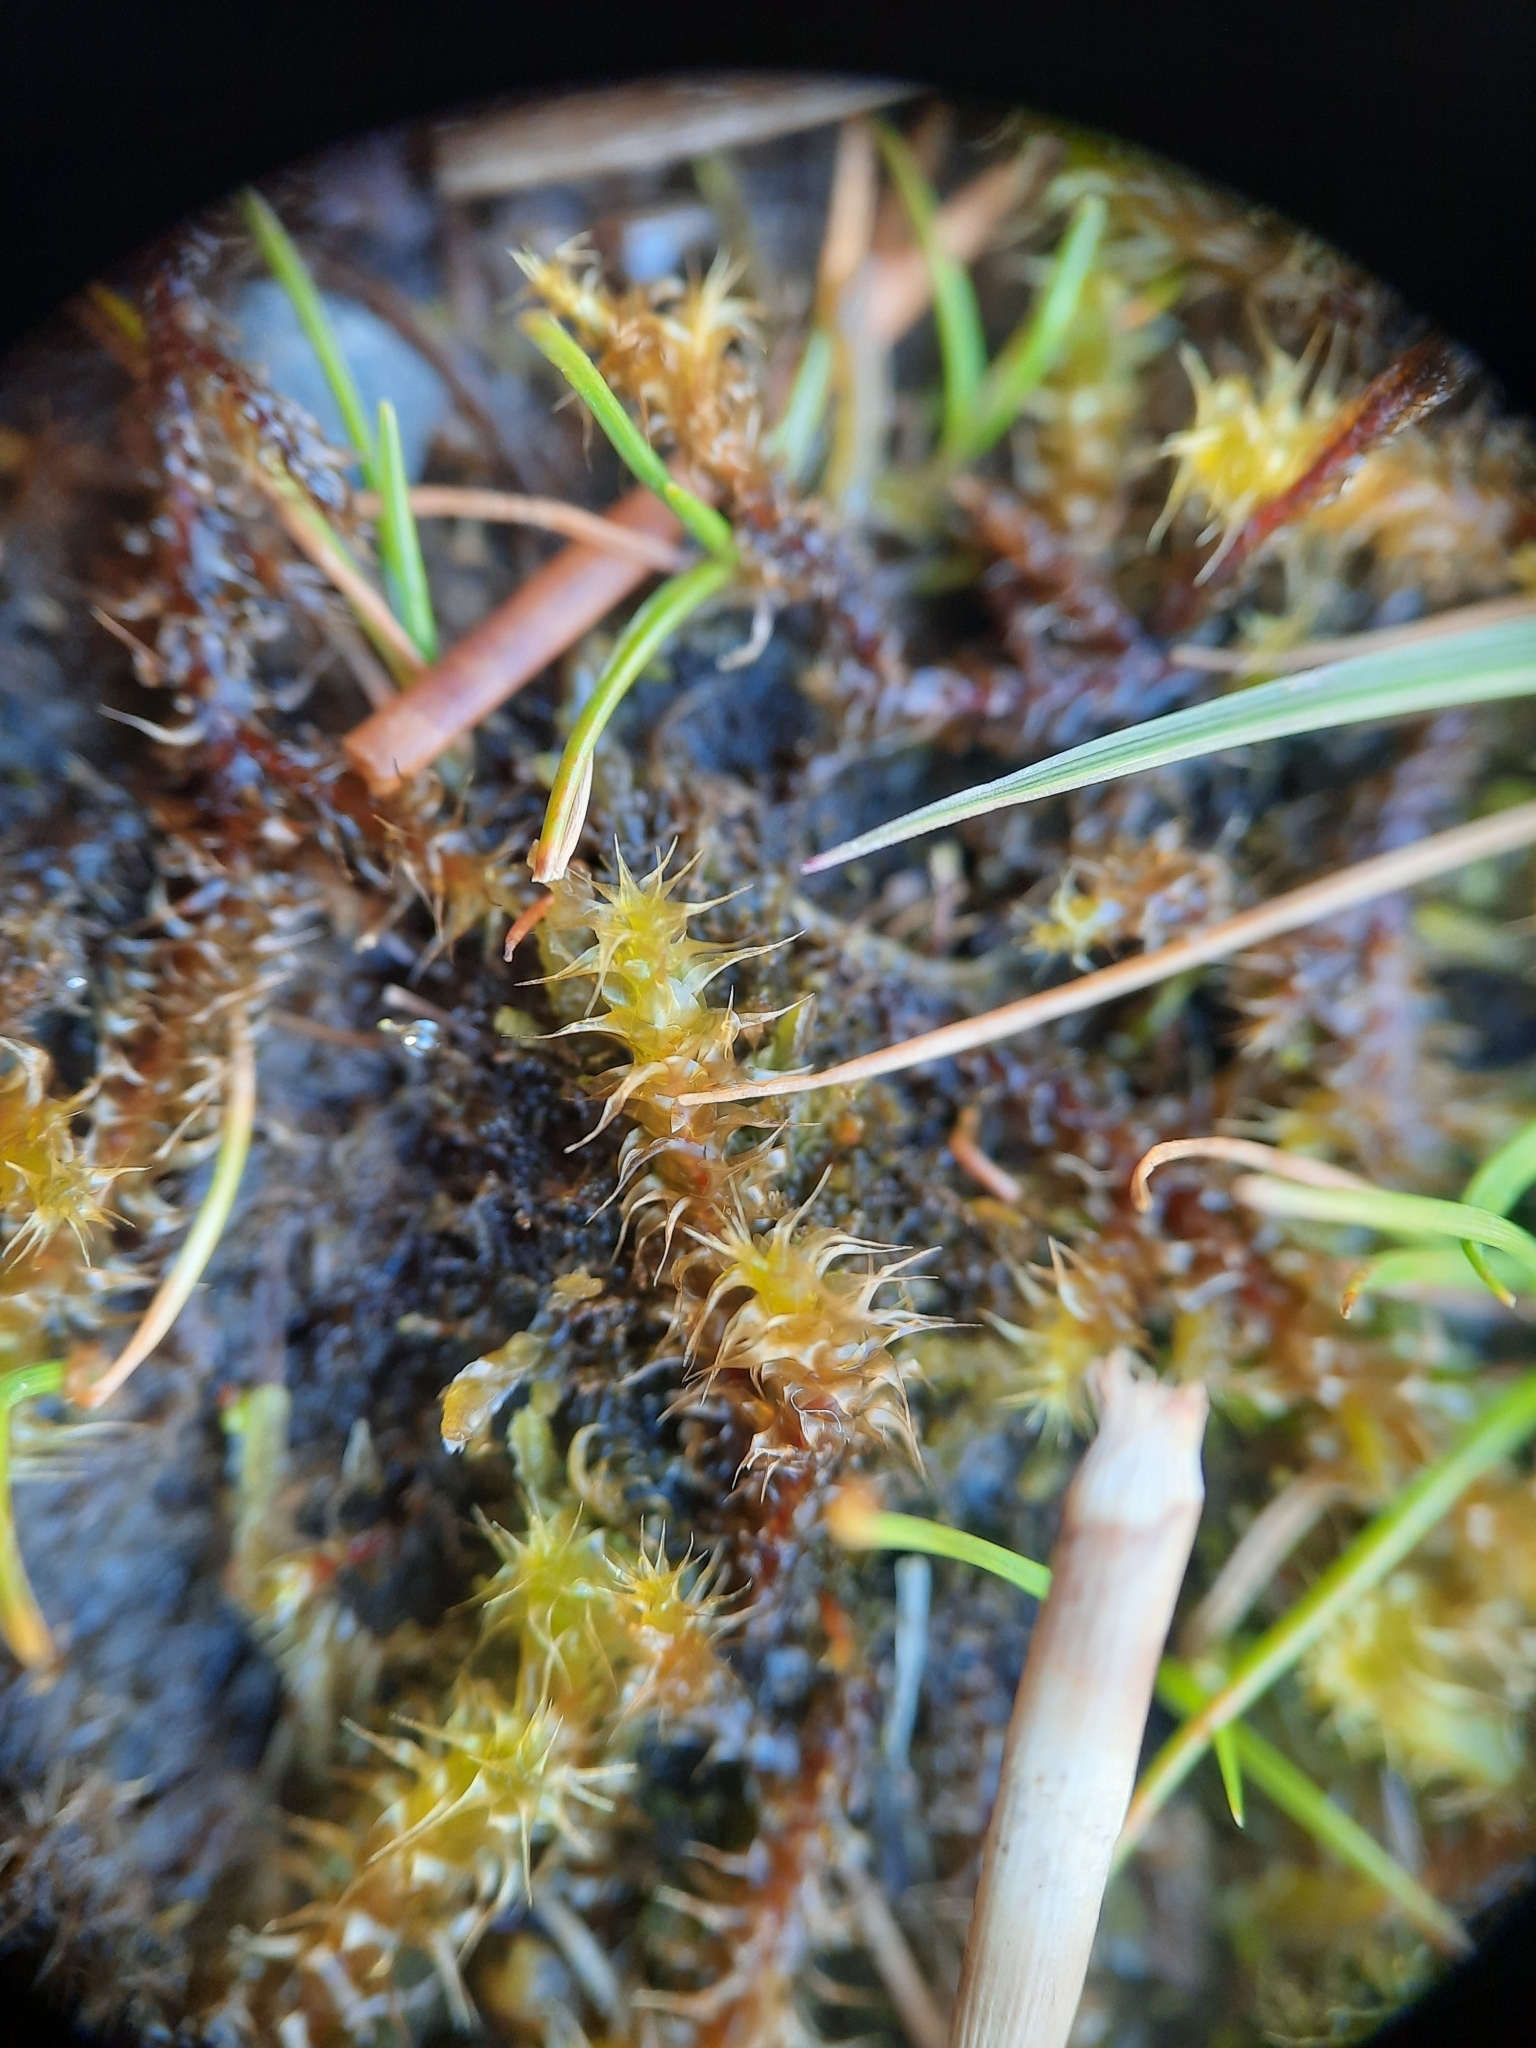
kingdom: Plantae
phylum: Bryophyta
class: Bryopsida
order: Hypnales
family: Hylocomiaceae
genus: Rhytidiadelphus
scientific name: Rhytidiadelphus squarrosus
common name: Springy turf-moss
